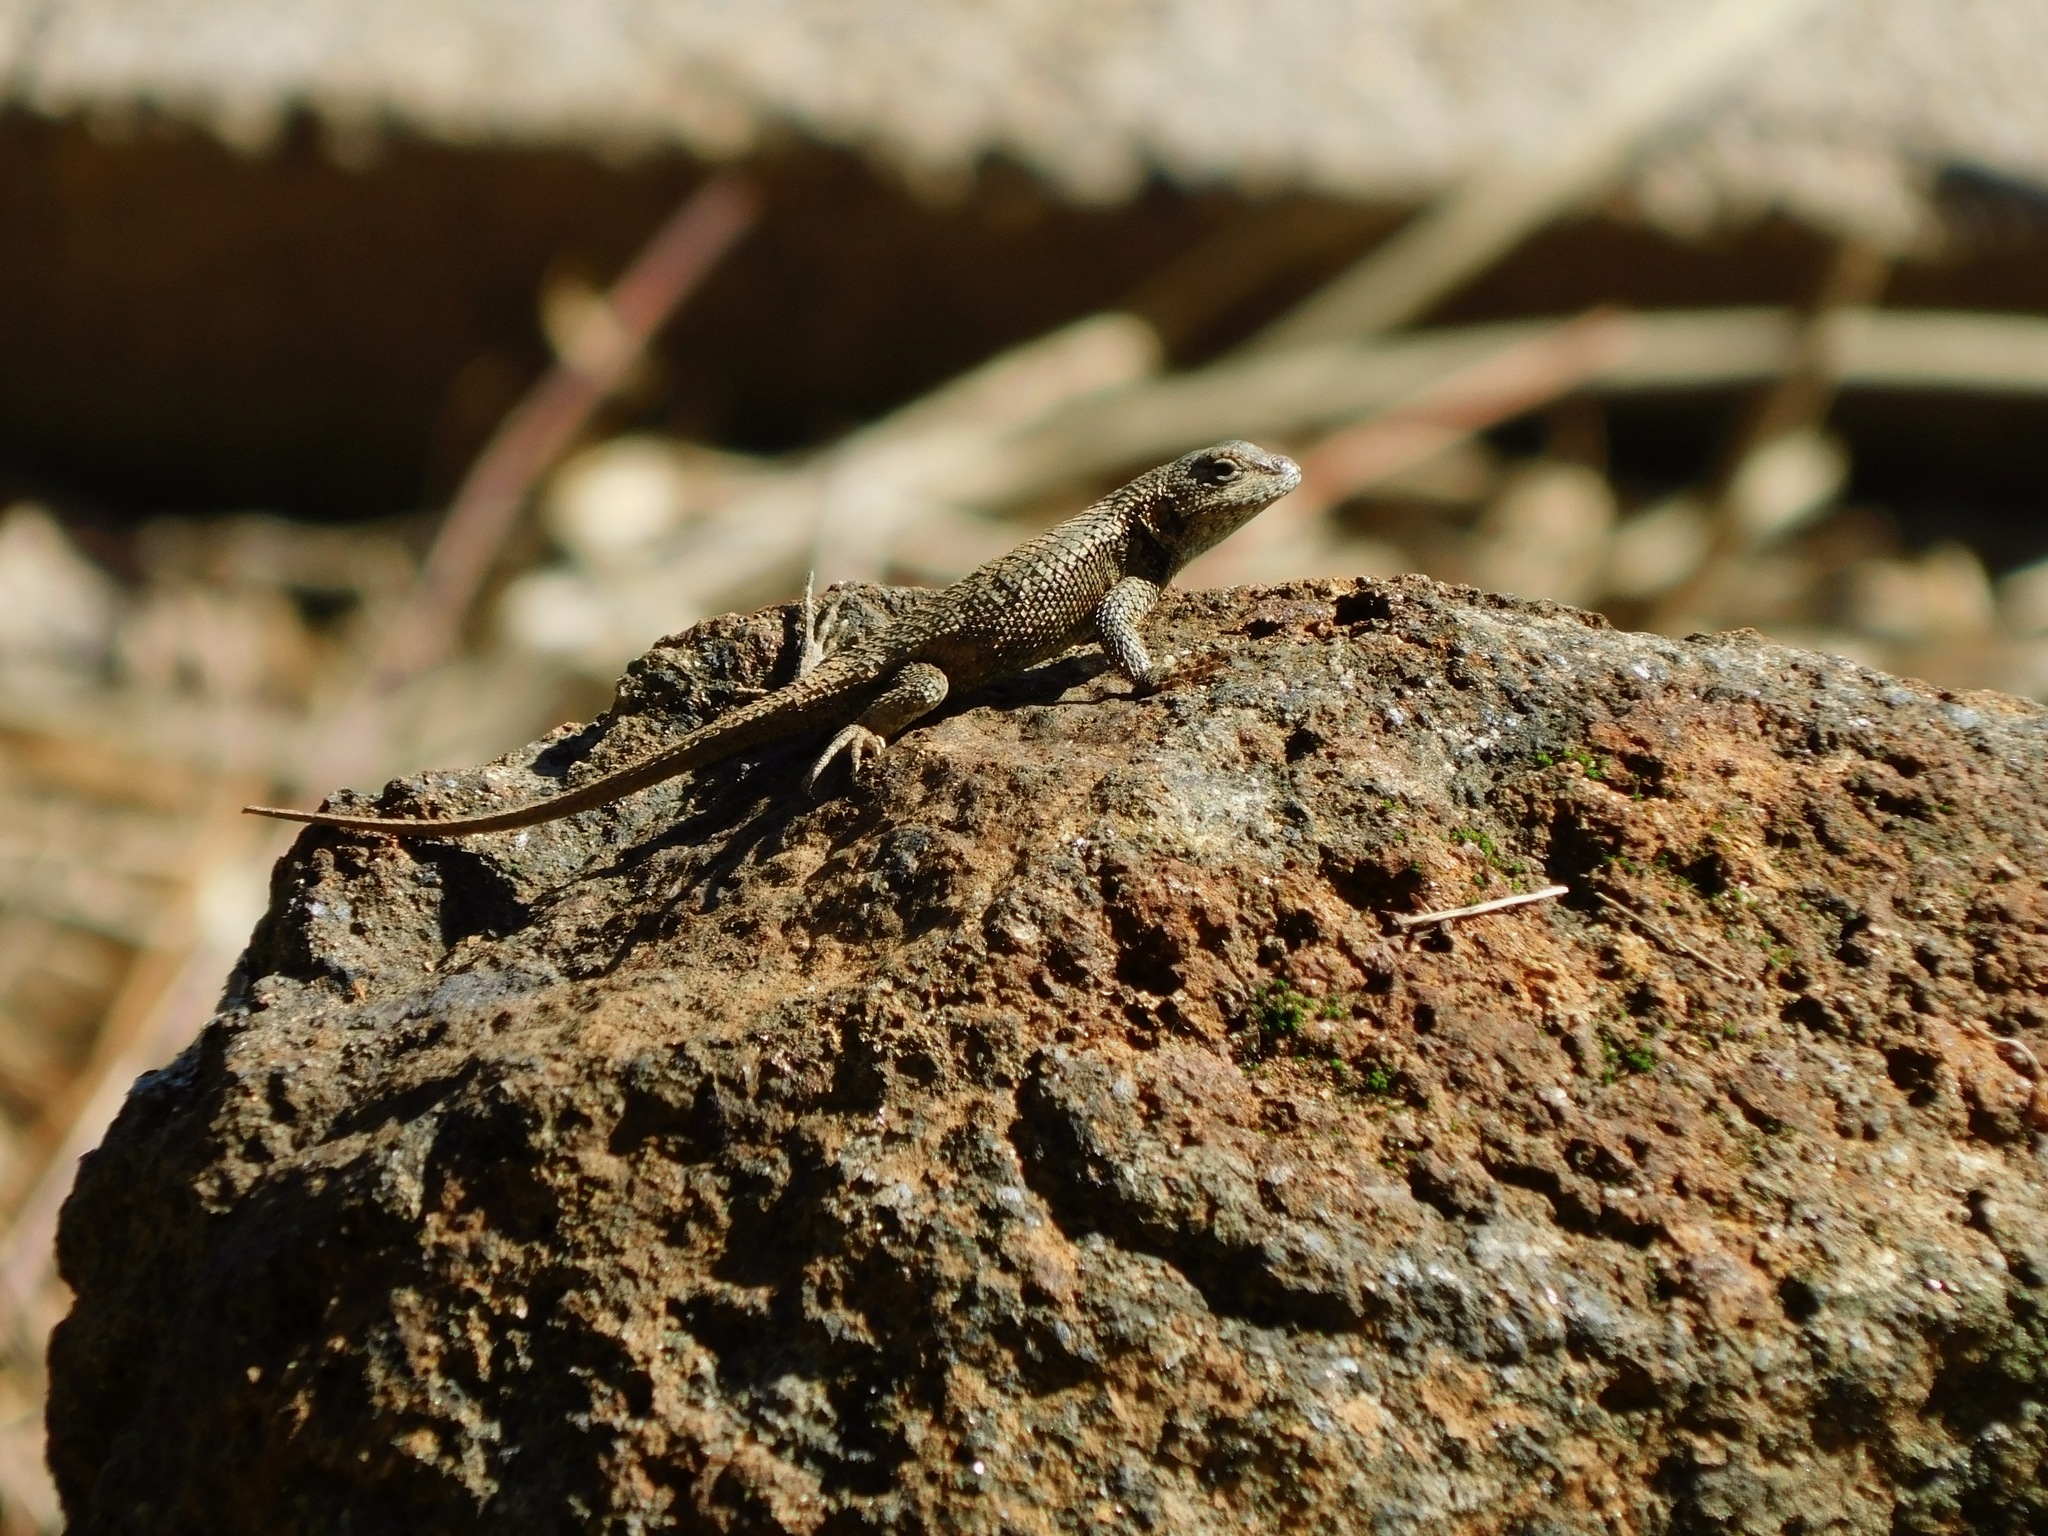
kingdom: Animalia
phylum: Chordata
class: Squamata
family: Phrynosomatidae
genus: Sceloporus
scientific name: Sceloporus undulatus
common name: Eastern fence lizard
